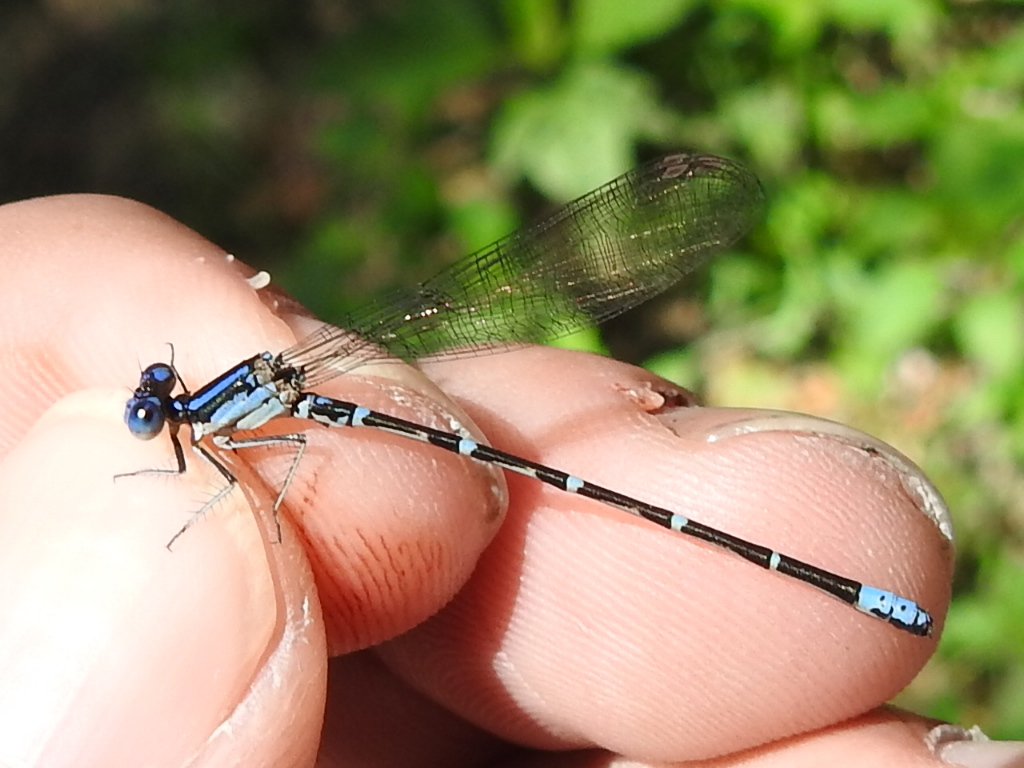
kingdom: Animalia
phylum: Arthropoda
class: Insecta
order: Odonata
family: Coenagrionidae
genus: Argia
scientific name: Argia sedula
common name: Blue-ringed dancer
